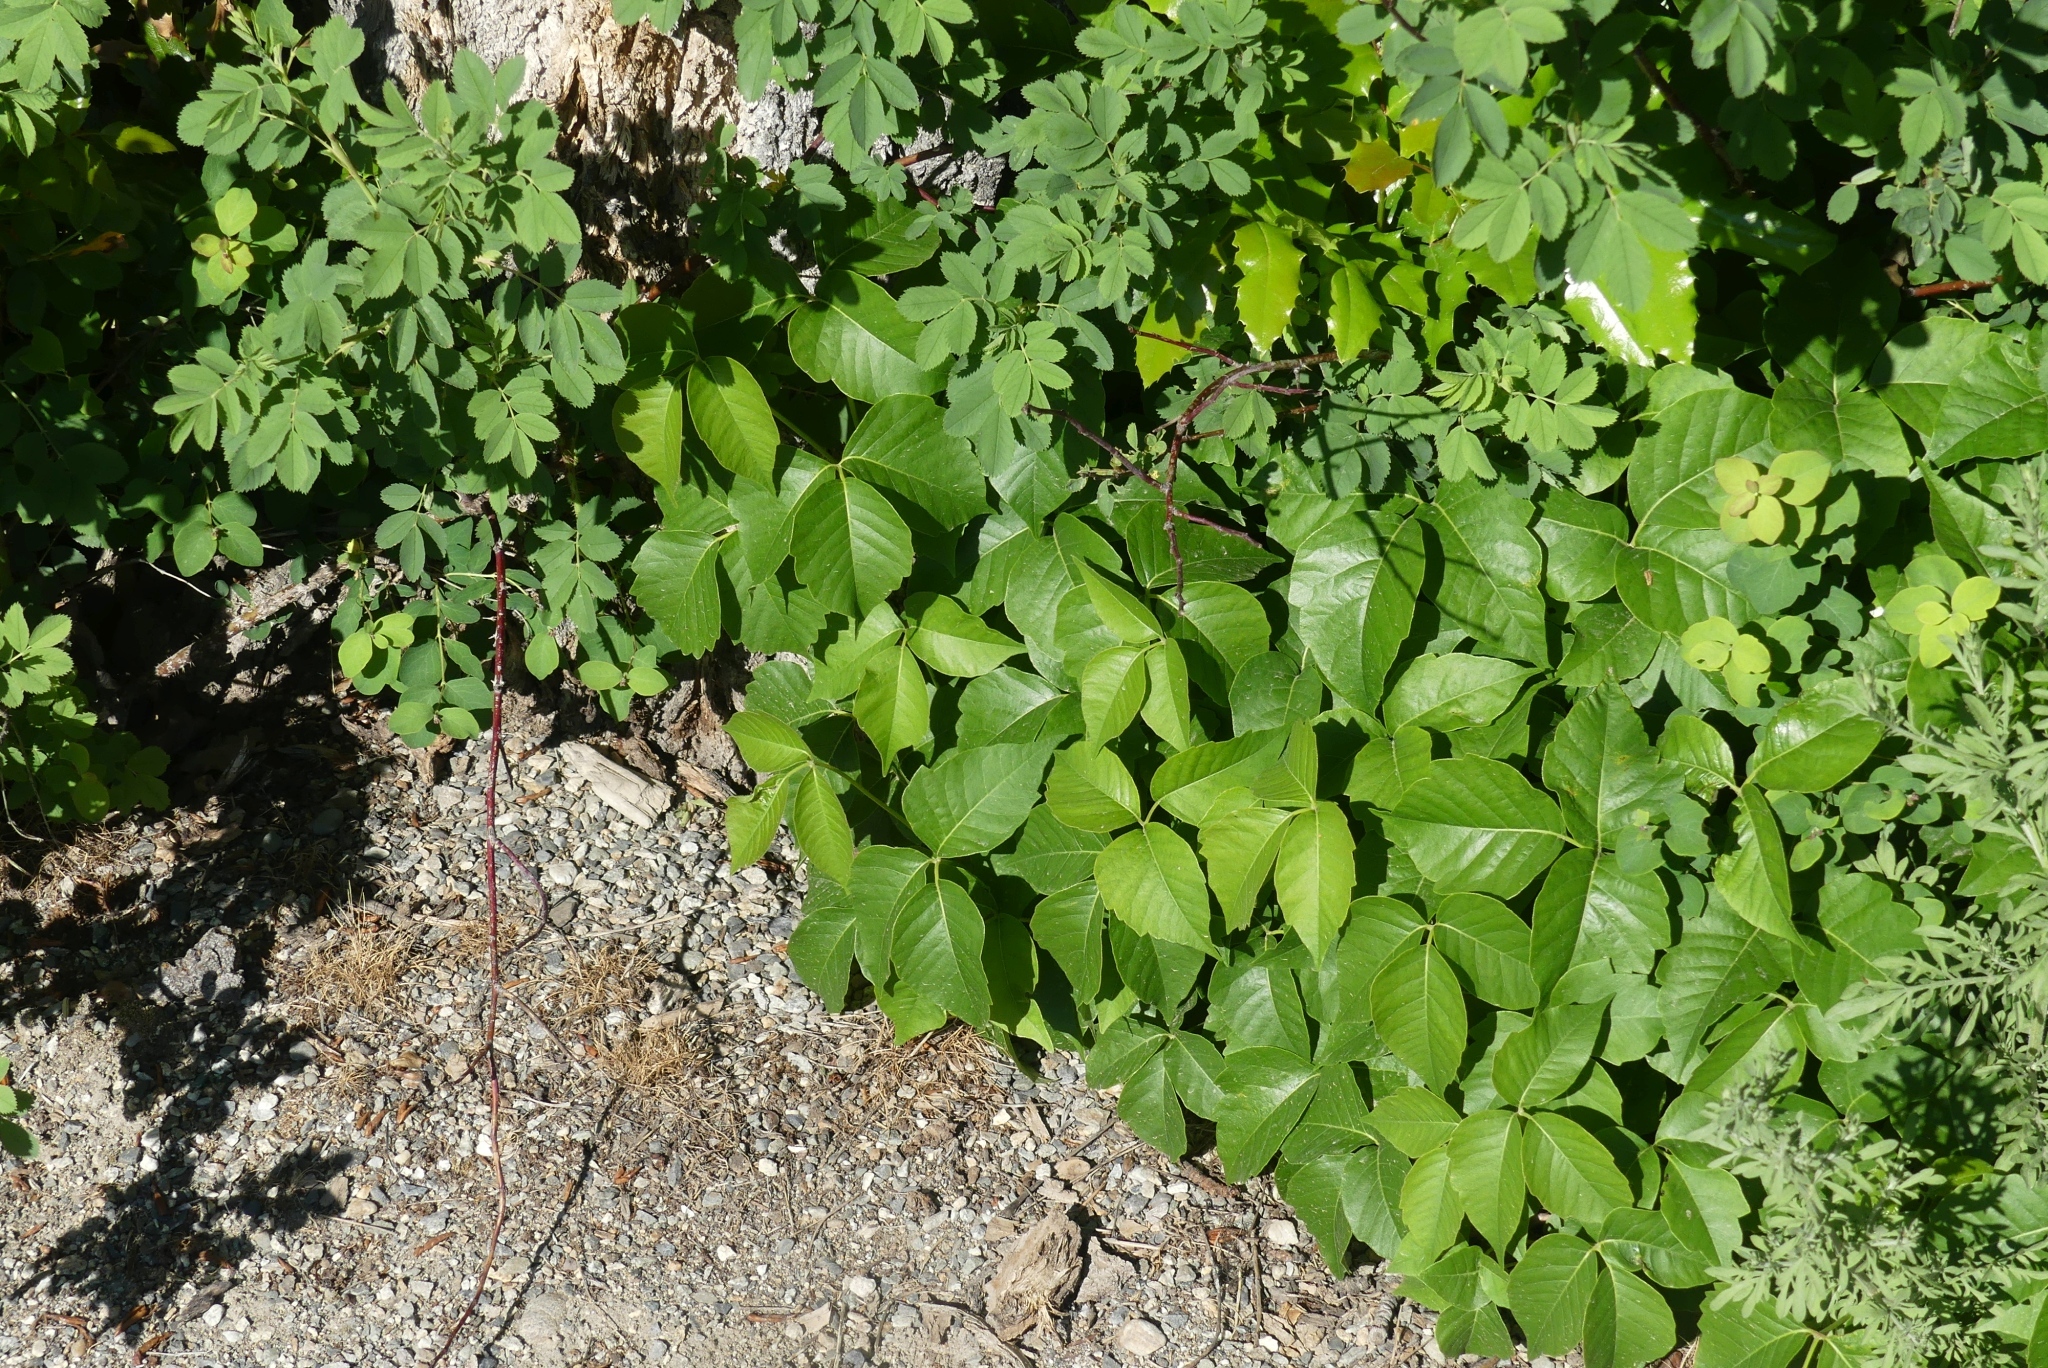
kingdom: Plantae
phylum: Tracheophyta
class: Magnoliopsida
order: Sapindales
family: Anacardiaceae
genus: Toxicodendron
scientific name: Toxicodendron rydbergii
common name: Rydberg's poison-ivy
